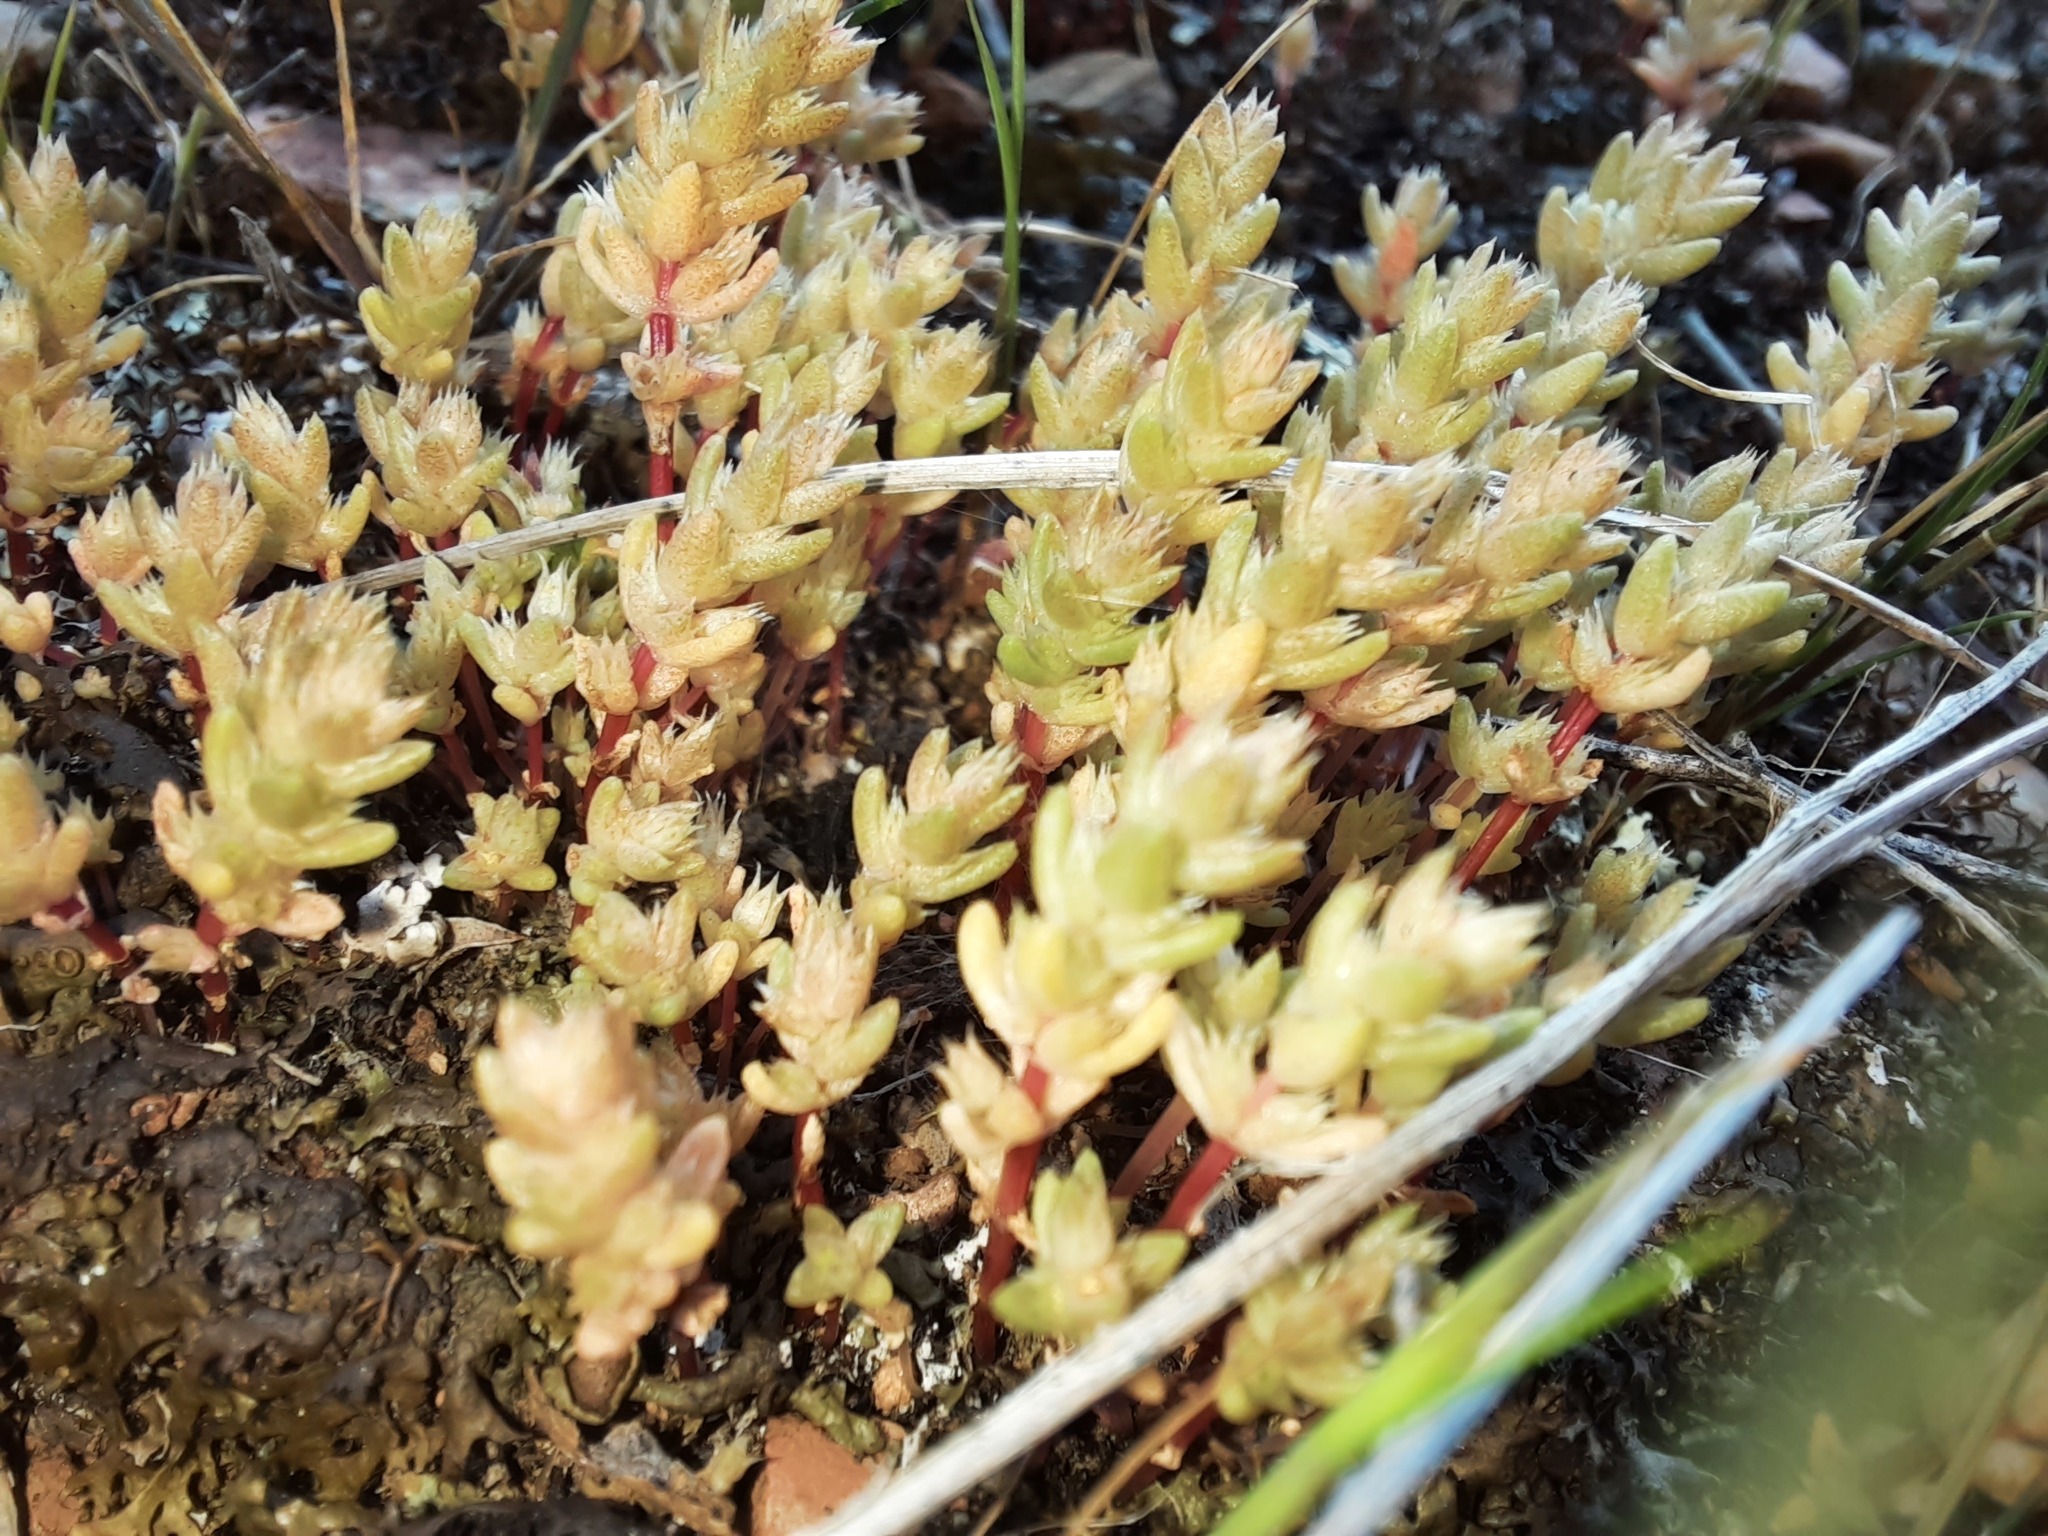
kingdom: Plantae
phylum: Tracheophyta
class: Magnoliopsida
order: Saxifragales
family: Crassulaceae
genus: Crassula
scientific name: Crassula sieberiana
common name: Siberian pygmyweed
